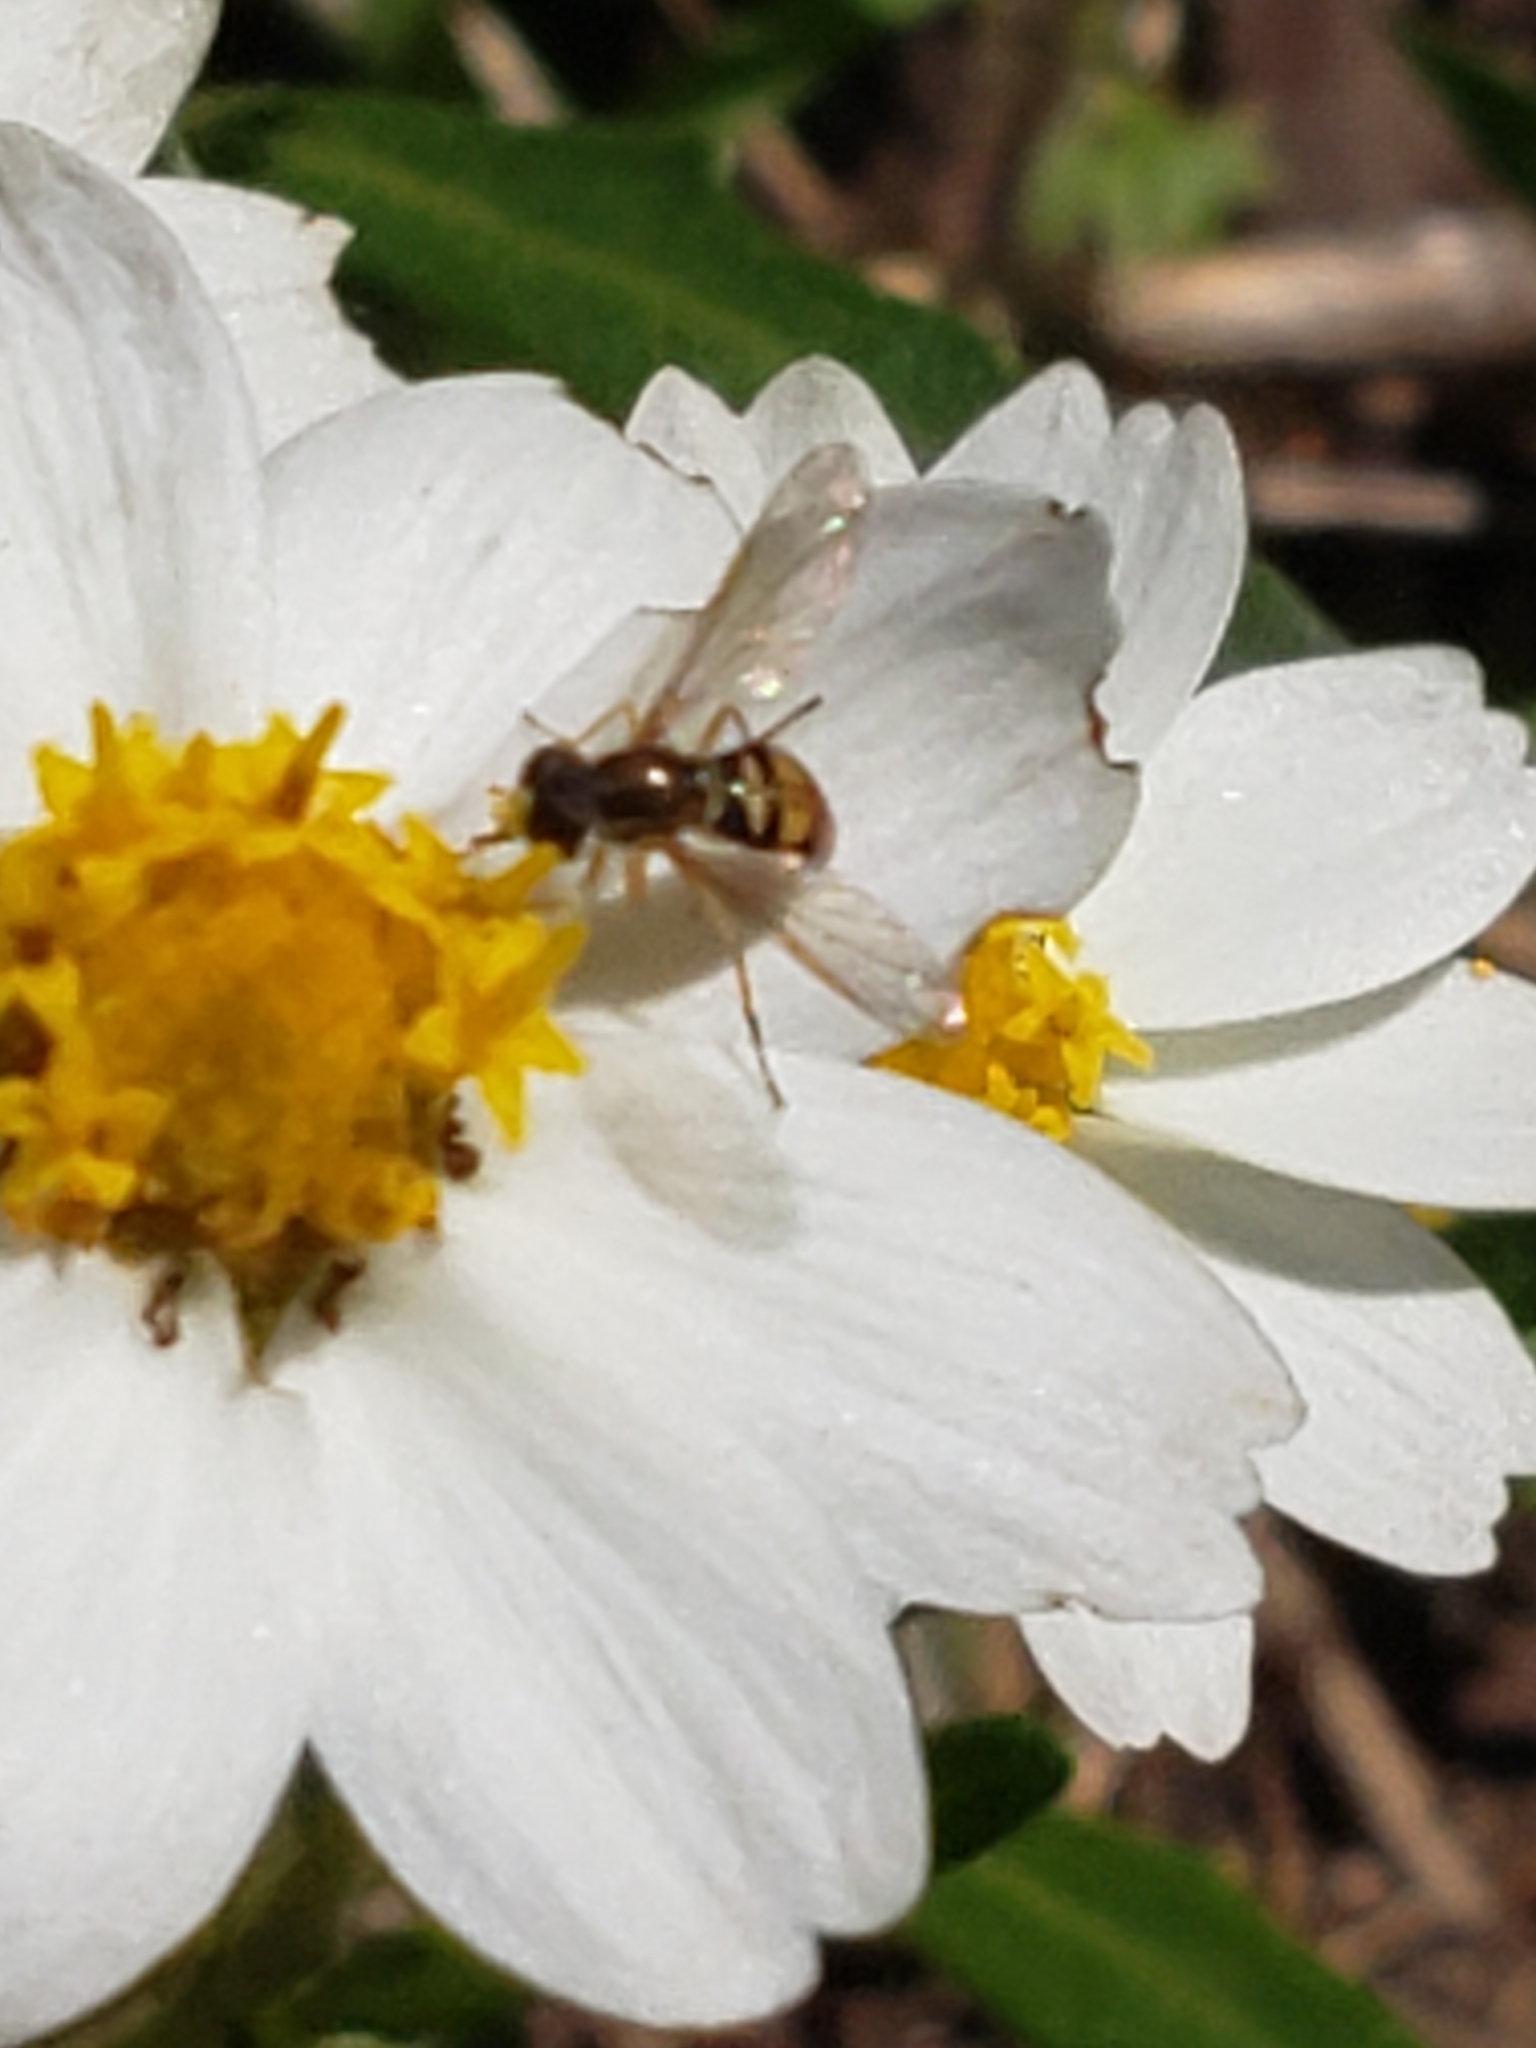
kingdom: Animalia
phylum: Arthropoda
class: Insecta
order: Diptera
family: Syrphidae
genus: Toxomerus
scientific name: Toxomerus marginatus
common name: Syrphid fly
